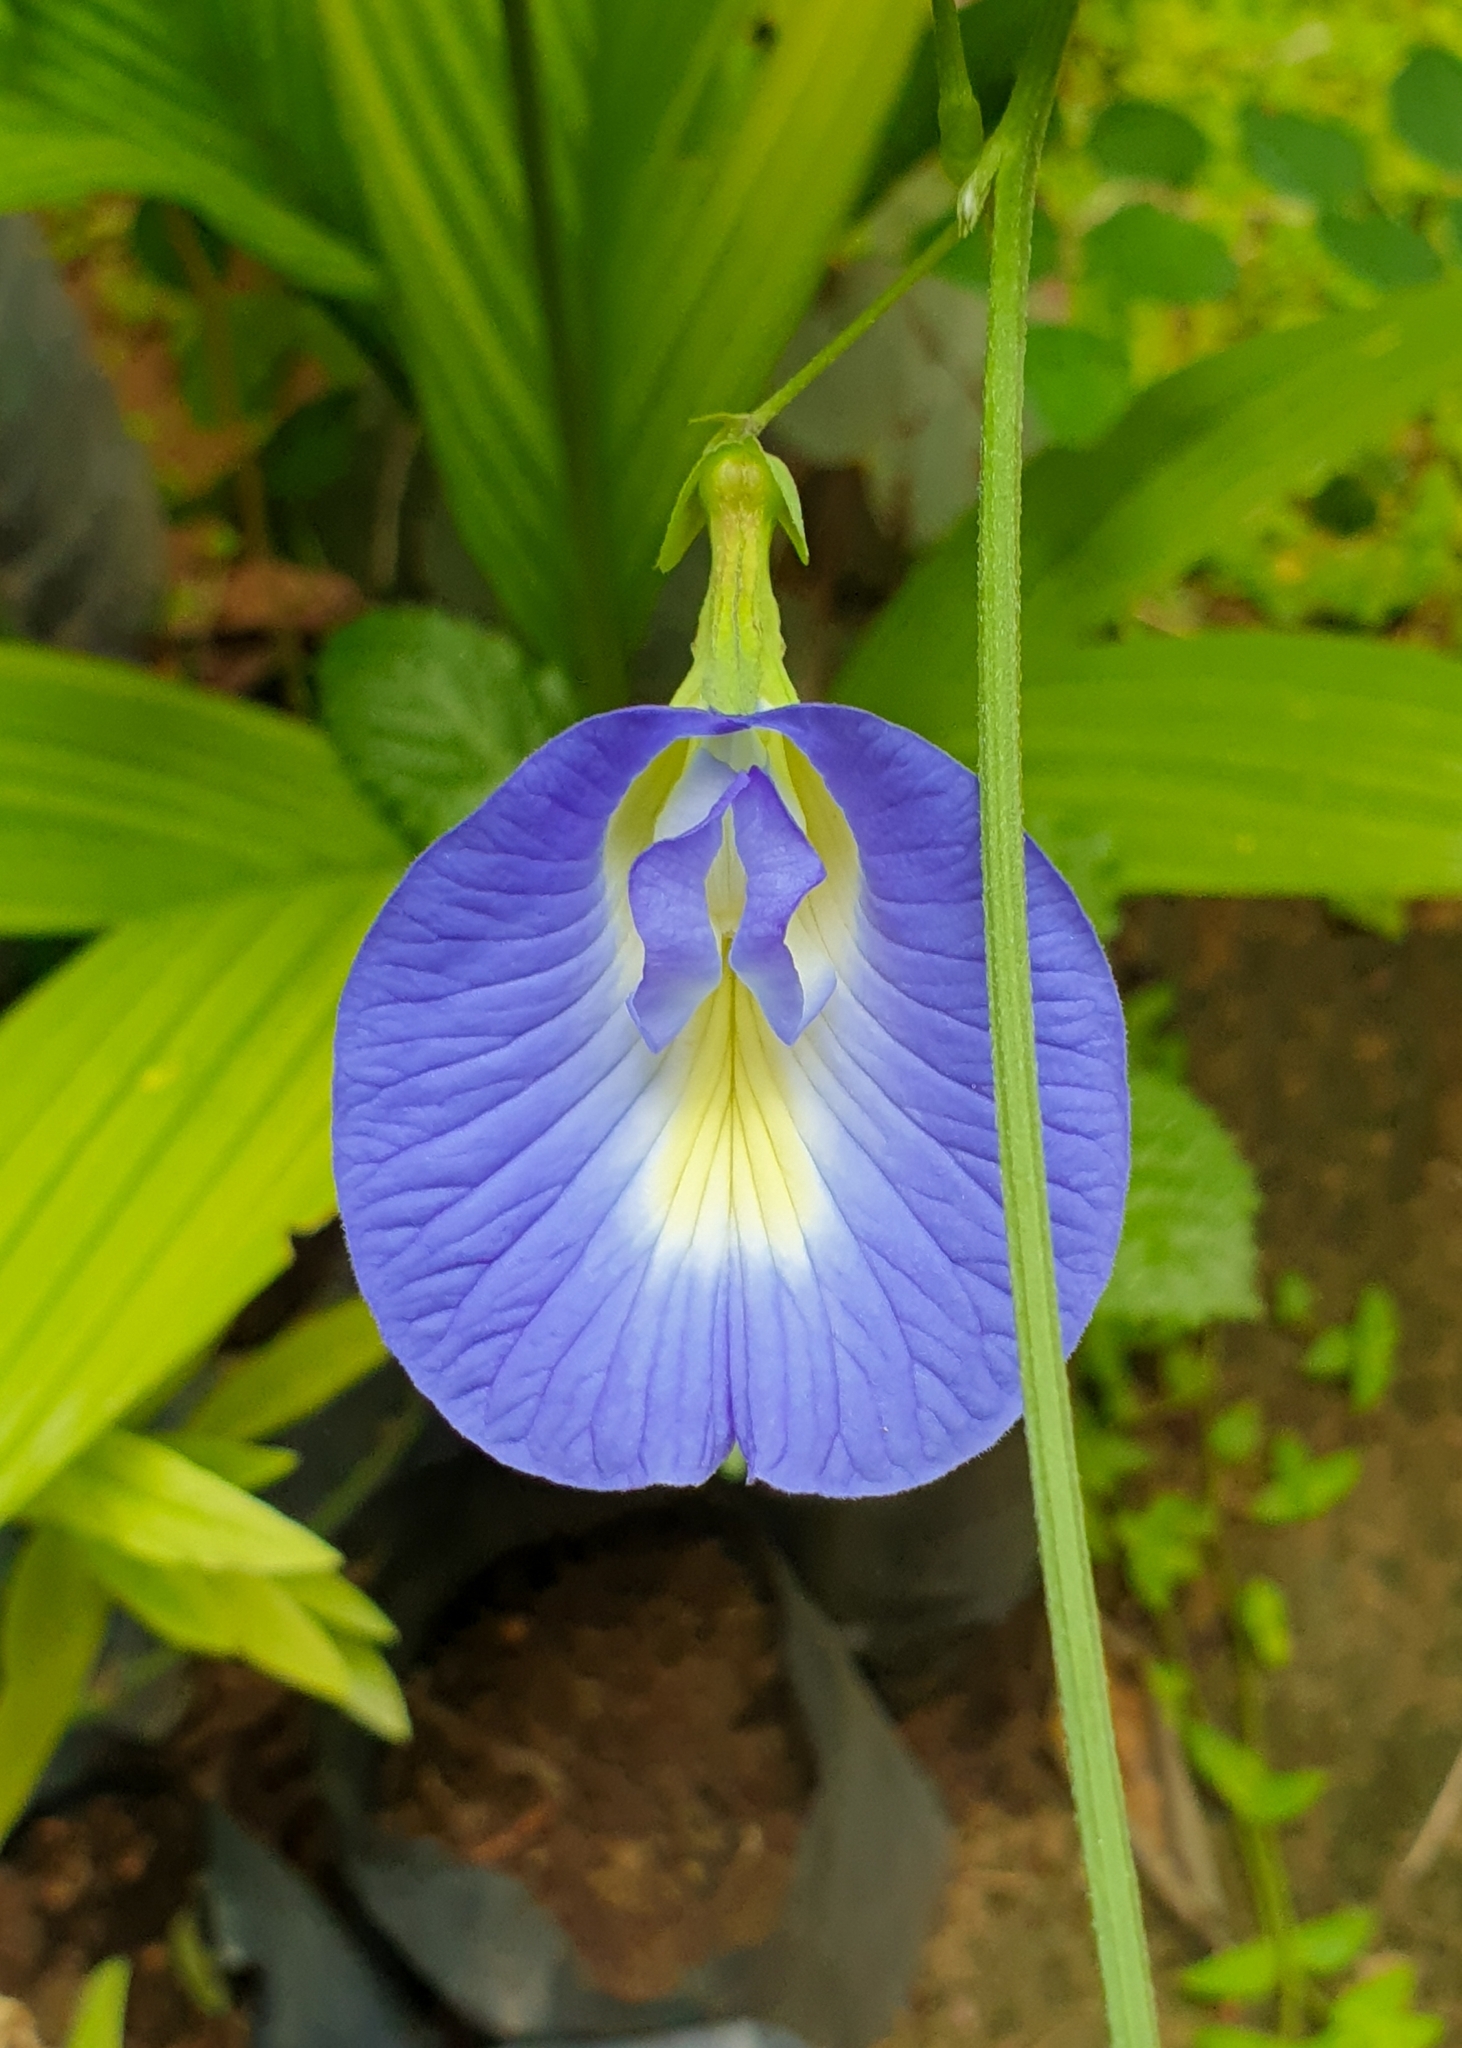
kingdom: Plantae
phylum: Tracheophyta
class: Magnoliopsida
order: Fabales
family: Fabaceae
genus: Clitoria
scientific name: Clitoria ternatea
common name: Asian pigeonwings
